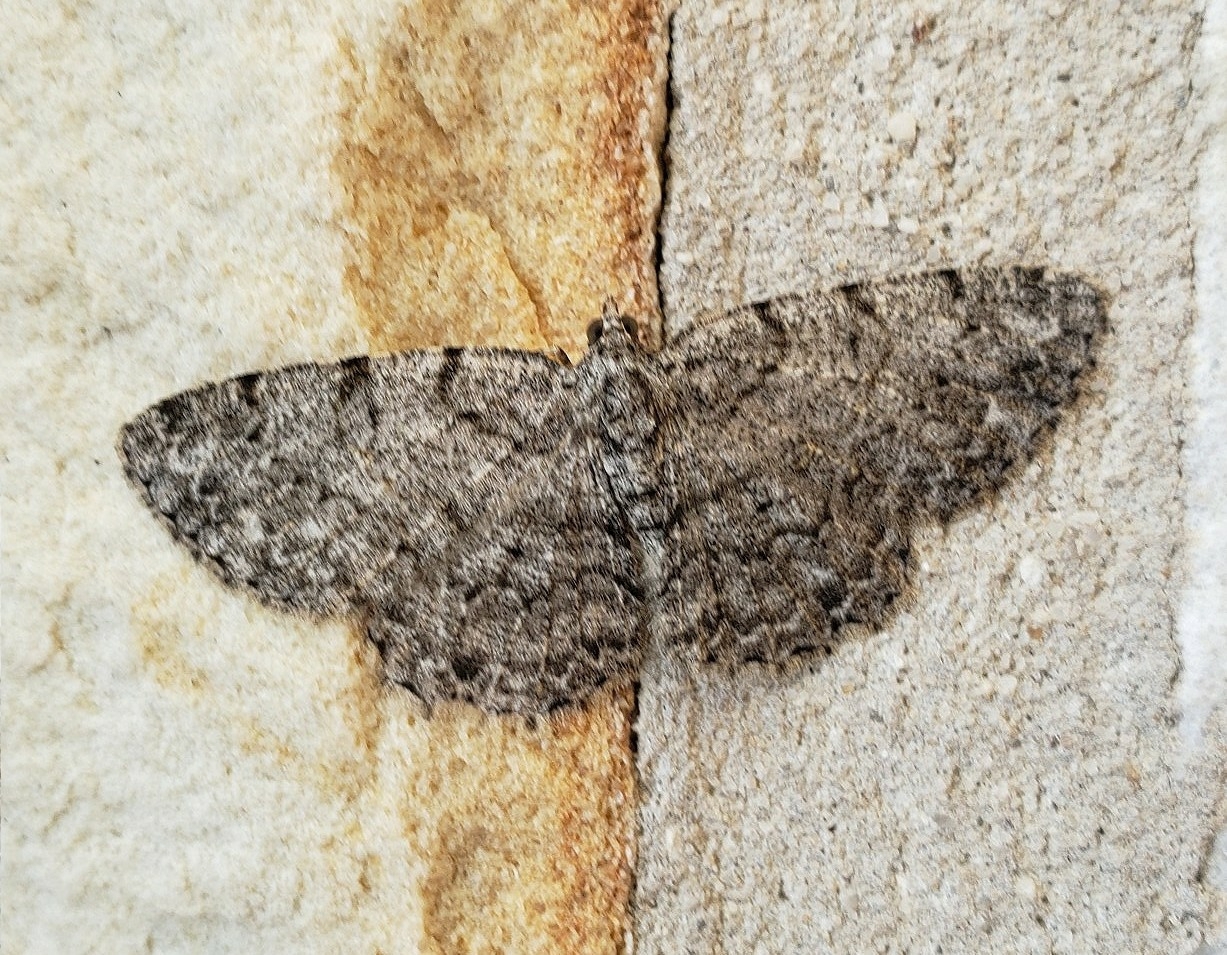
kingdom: Animalia
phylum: Arthropoda
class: Insecta
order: Lepidoptera
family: Geometridae
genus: Protoboarmia
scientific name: Protoboarmia porcelaria
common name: Porcelain gray
